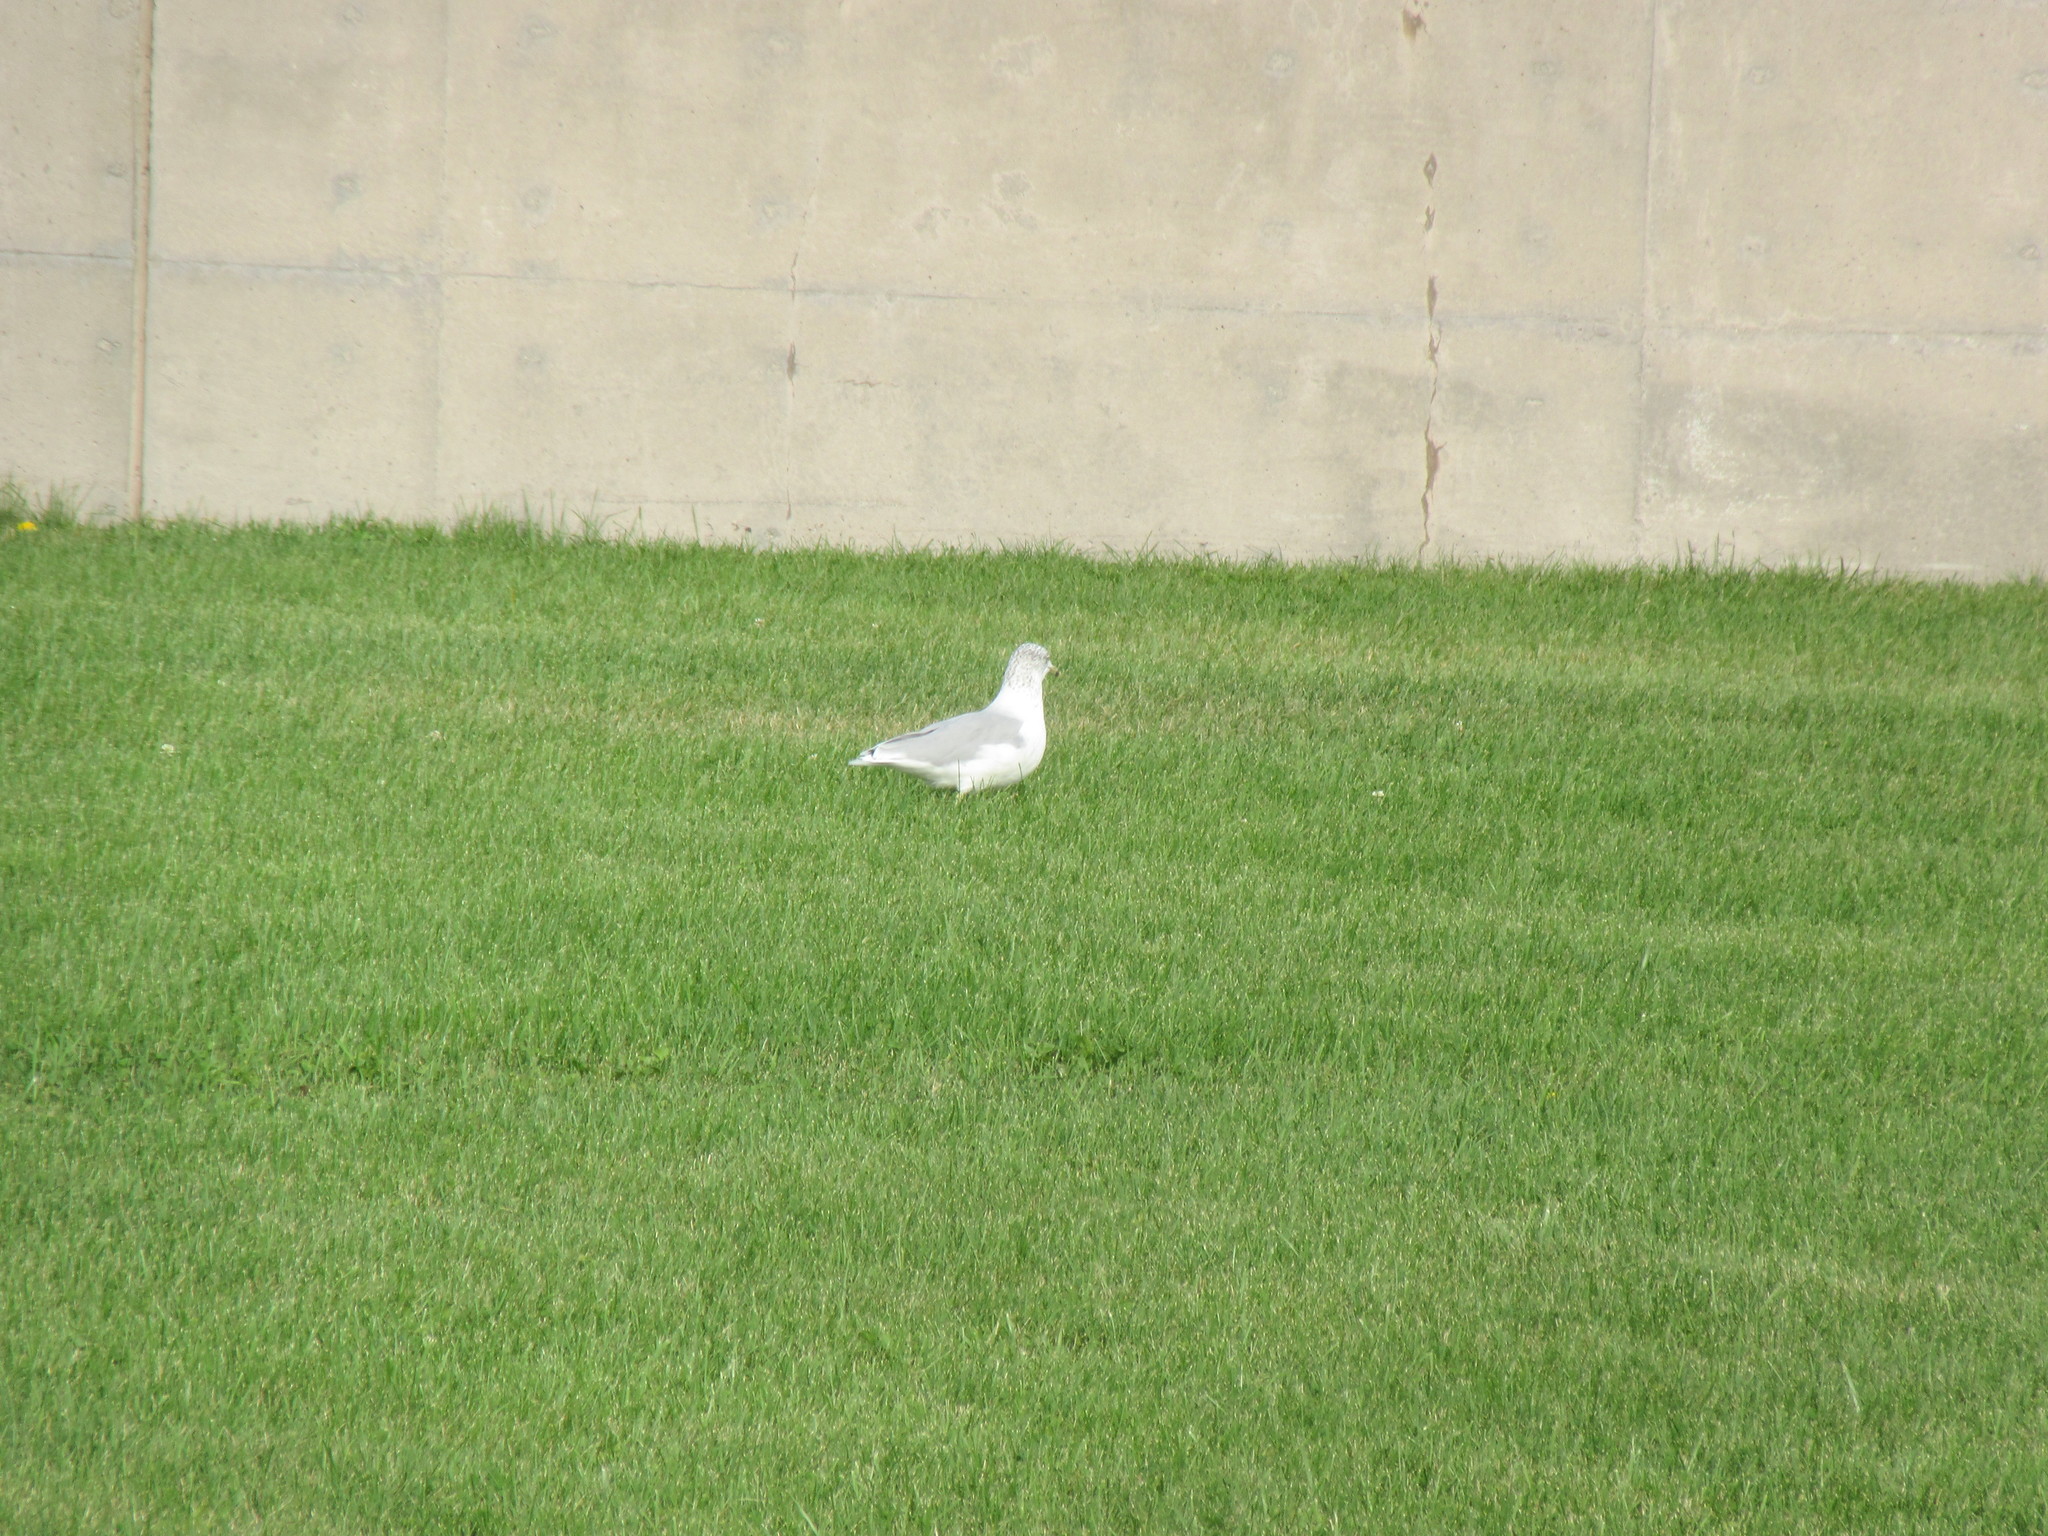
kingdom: Animalia
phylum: Chordata
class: Aves
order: Charadriiformes
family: Laridae
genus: Larus
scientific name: Larus delawarensis
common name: Ring-billed gull
